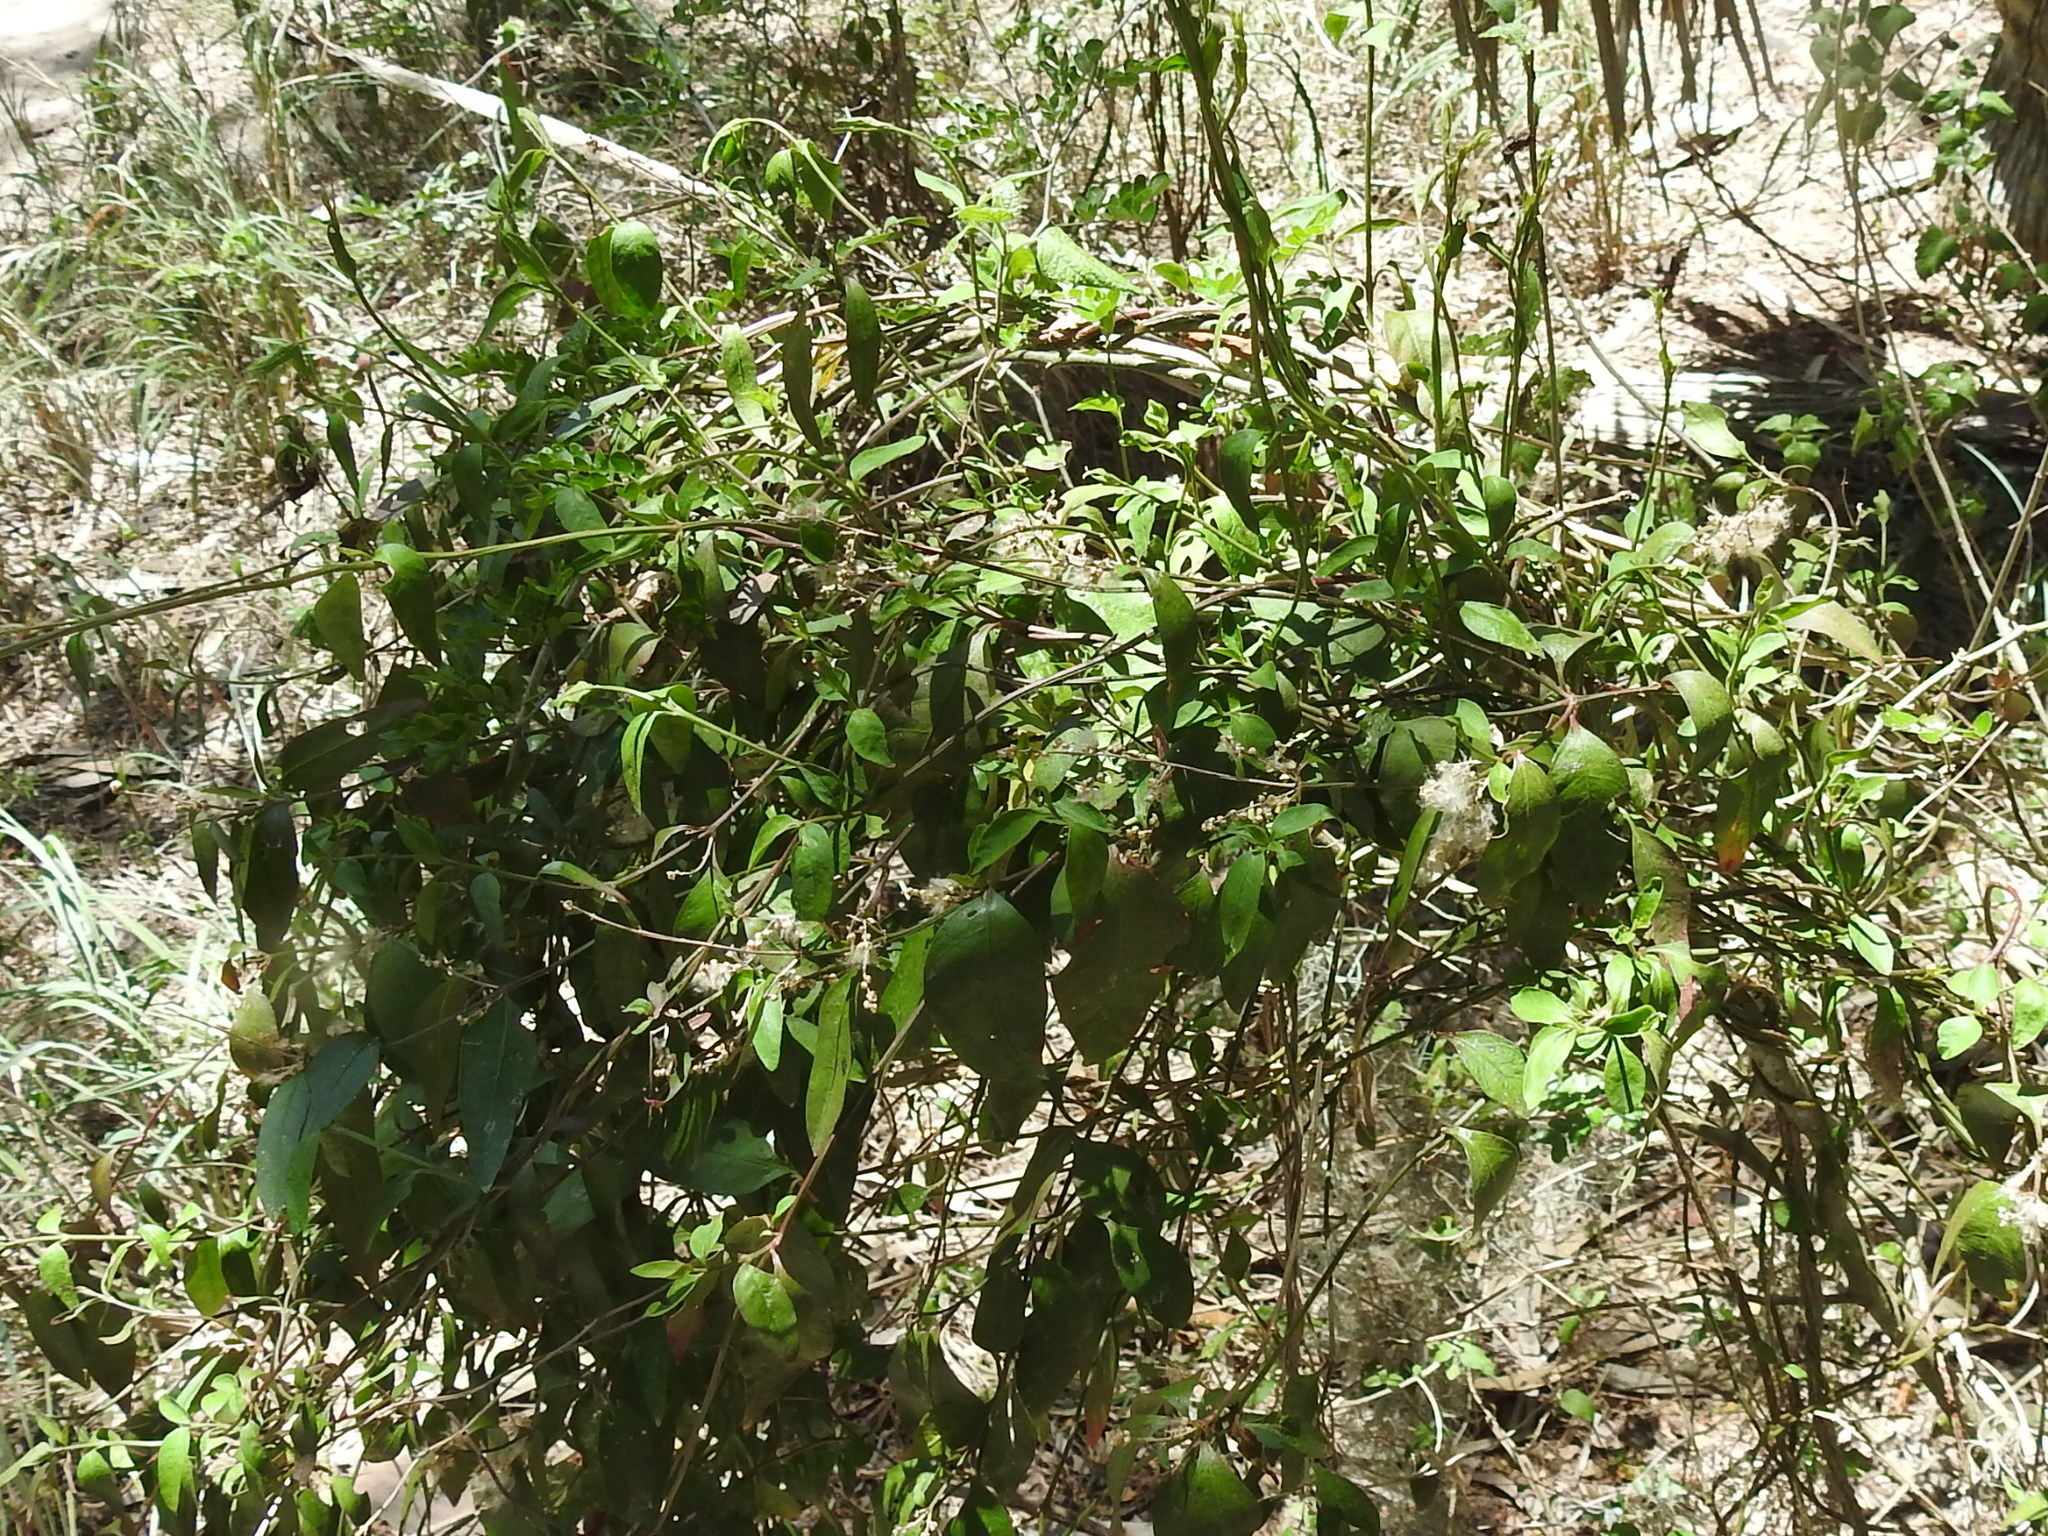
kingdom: Plantae
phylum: Tracheophyta
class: Magnoliopsida
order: Caryophyllales
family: Amaranthaceae
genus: Iresine
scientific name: Iresine palmeri
